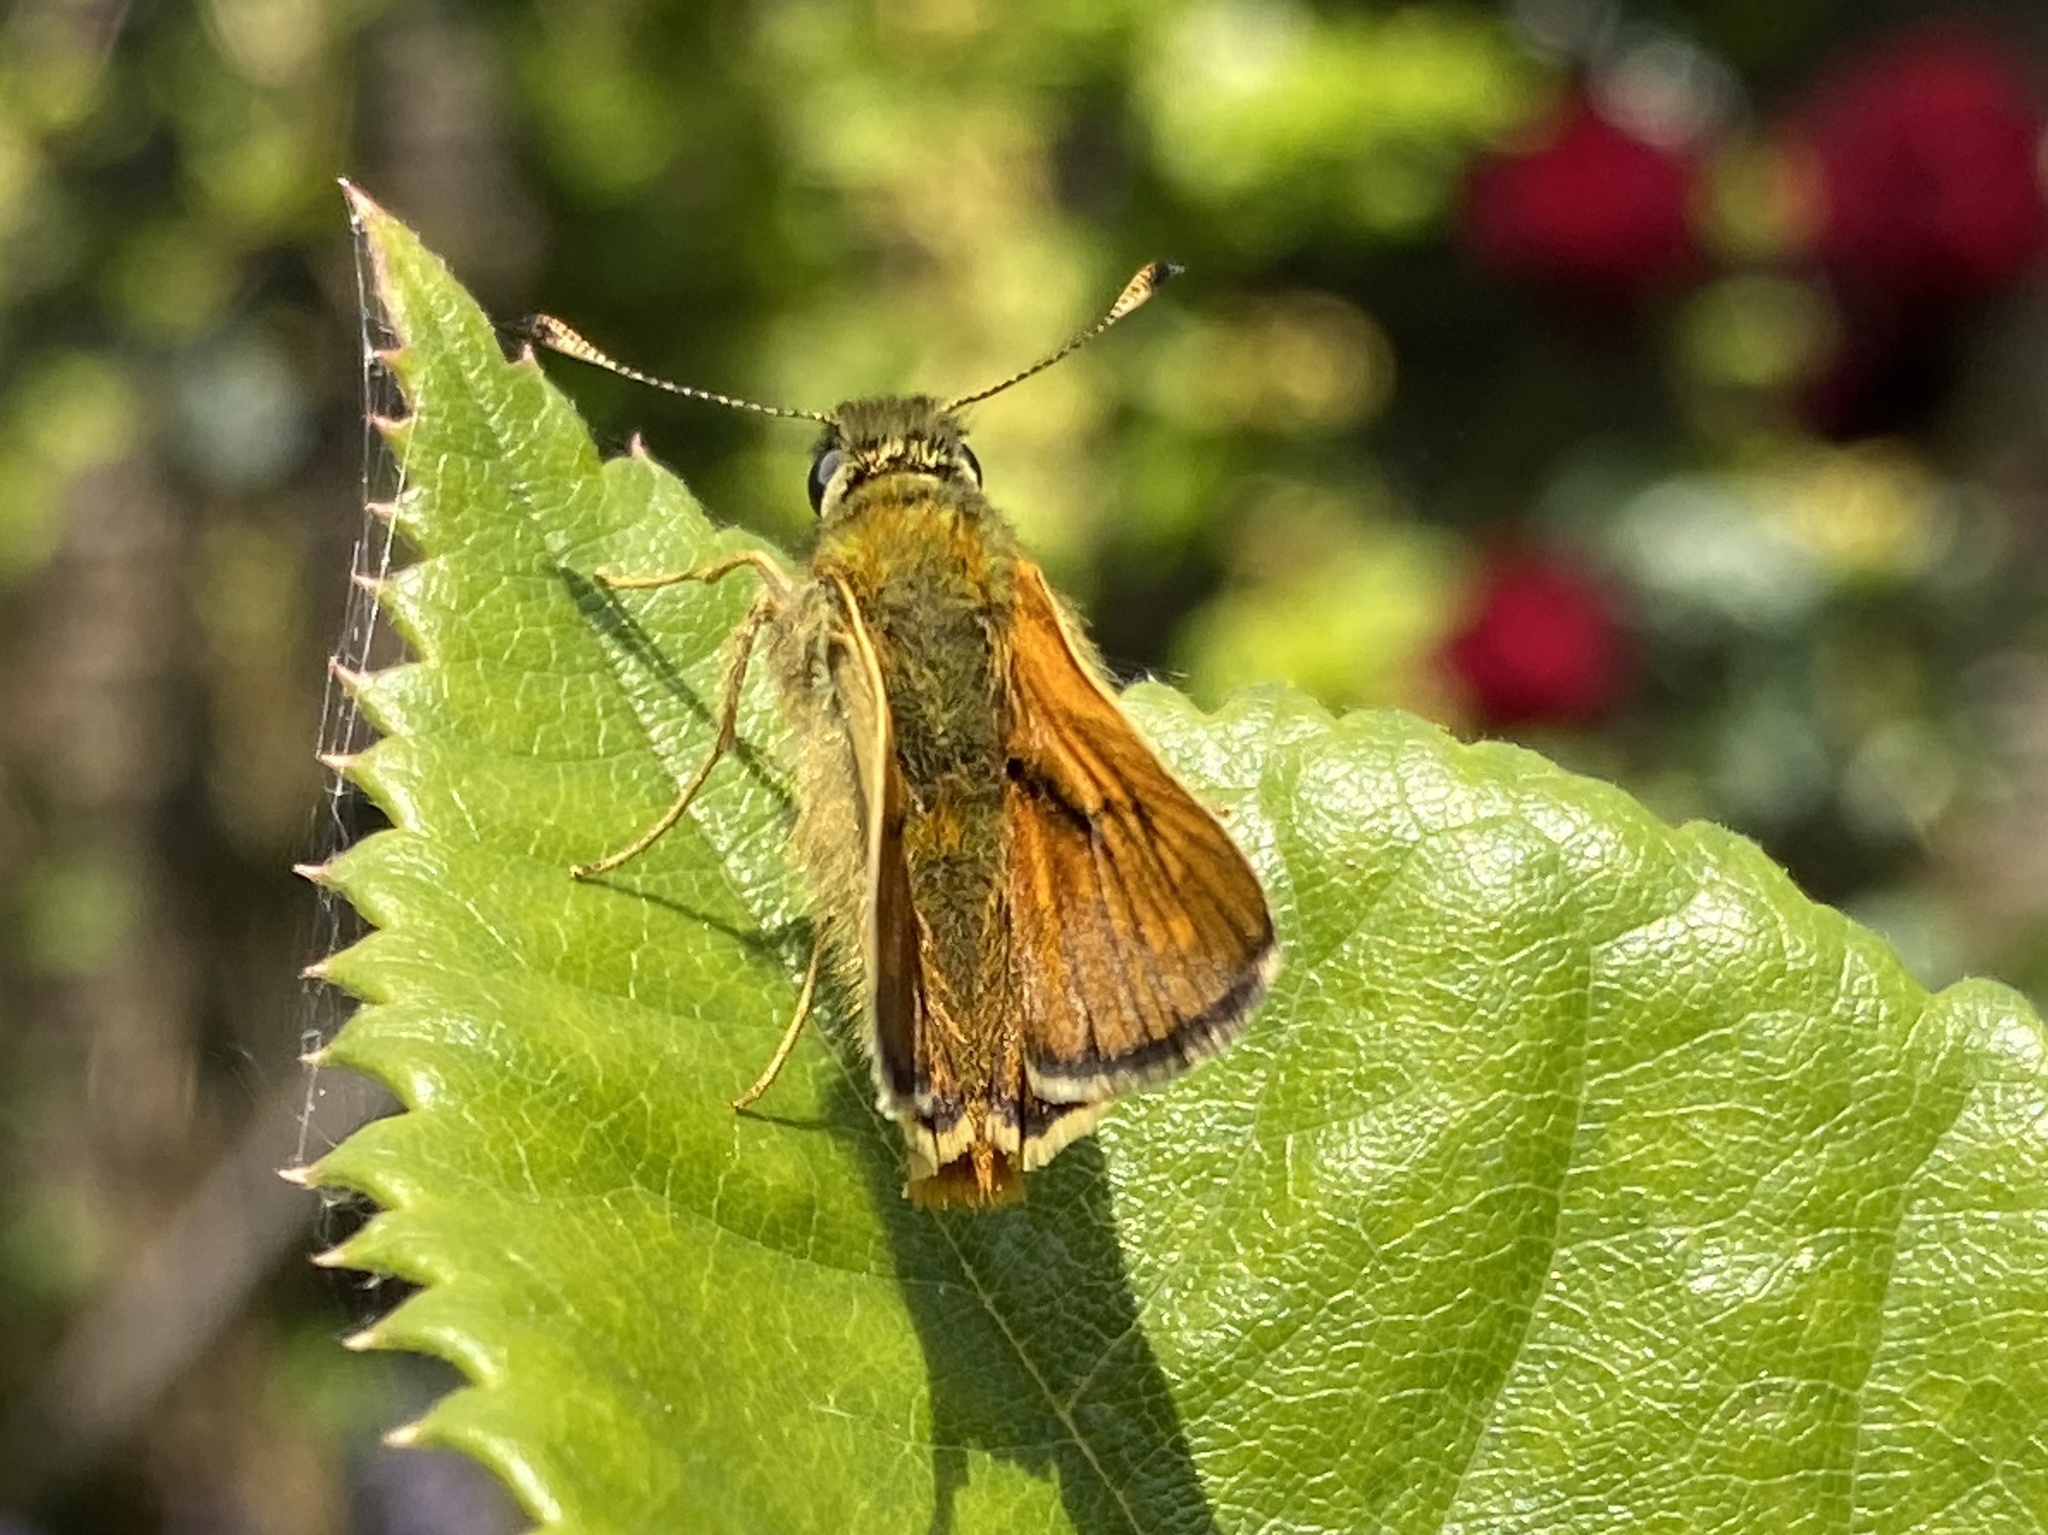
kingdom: Animalia
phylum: Arthropoda
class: Insecta
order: Lepidoptera
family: Hesperiidae
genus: Ochlodes
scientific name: Ochlodes venata
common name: Large skipper
